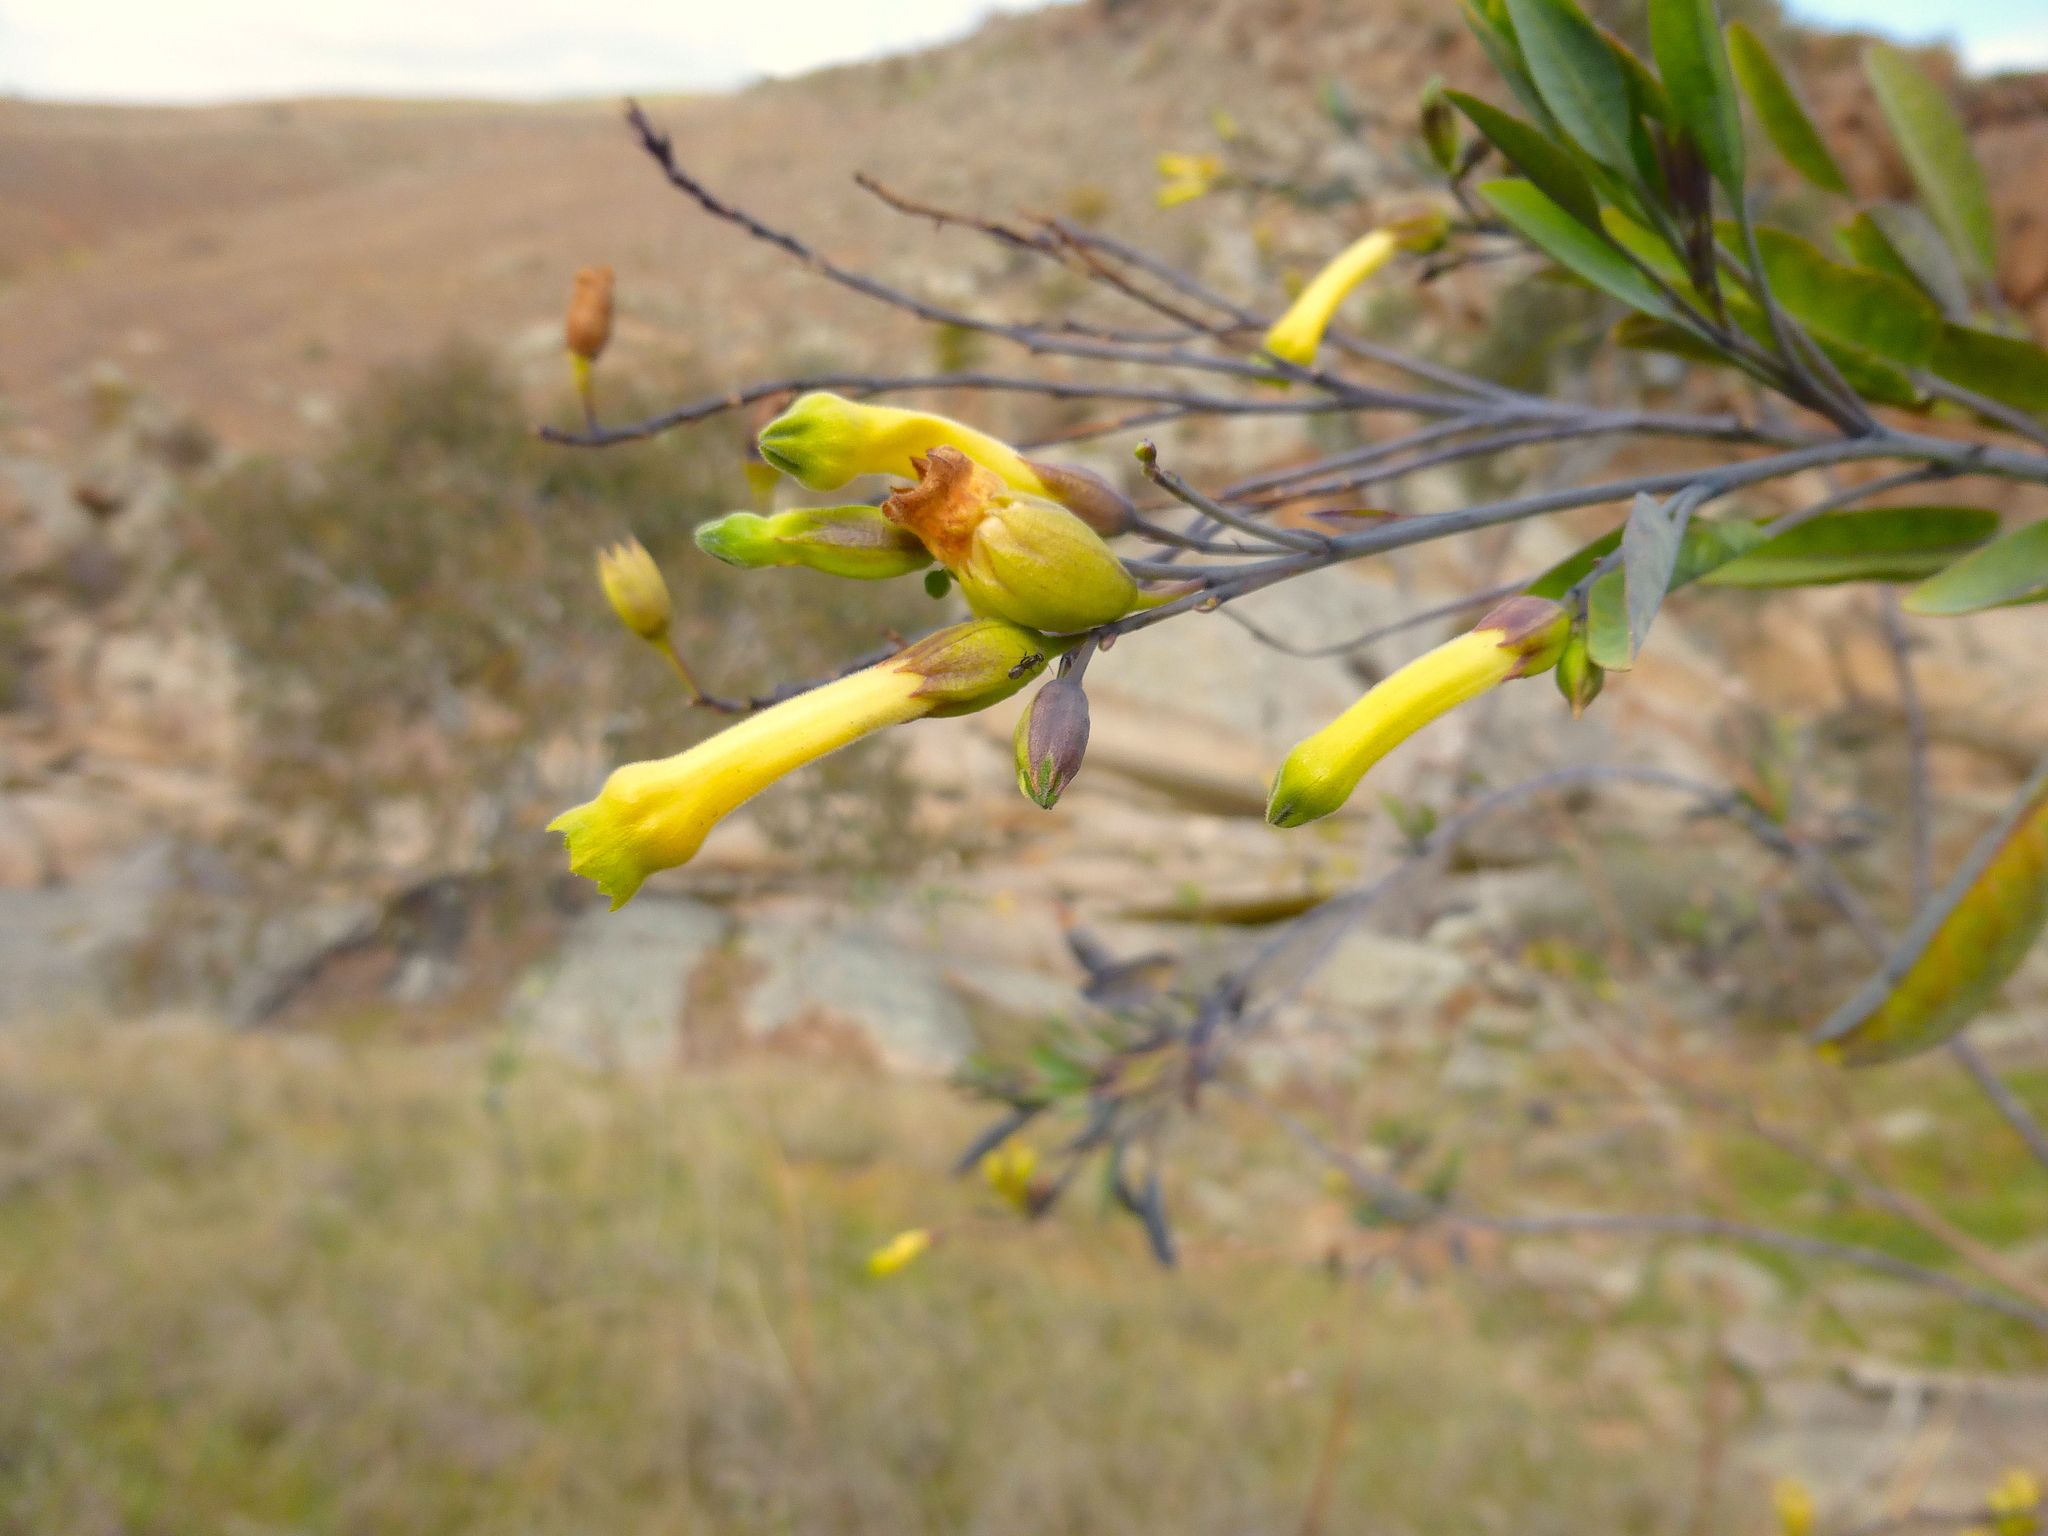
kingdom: Plantae
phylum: Tracheophyta
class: Magnoliopsida
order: Solanales
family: Solanaceae
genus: Nicotiana
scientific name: Nicotiana glauca
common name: Tree tobacco
